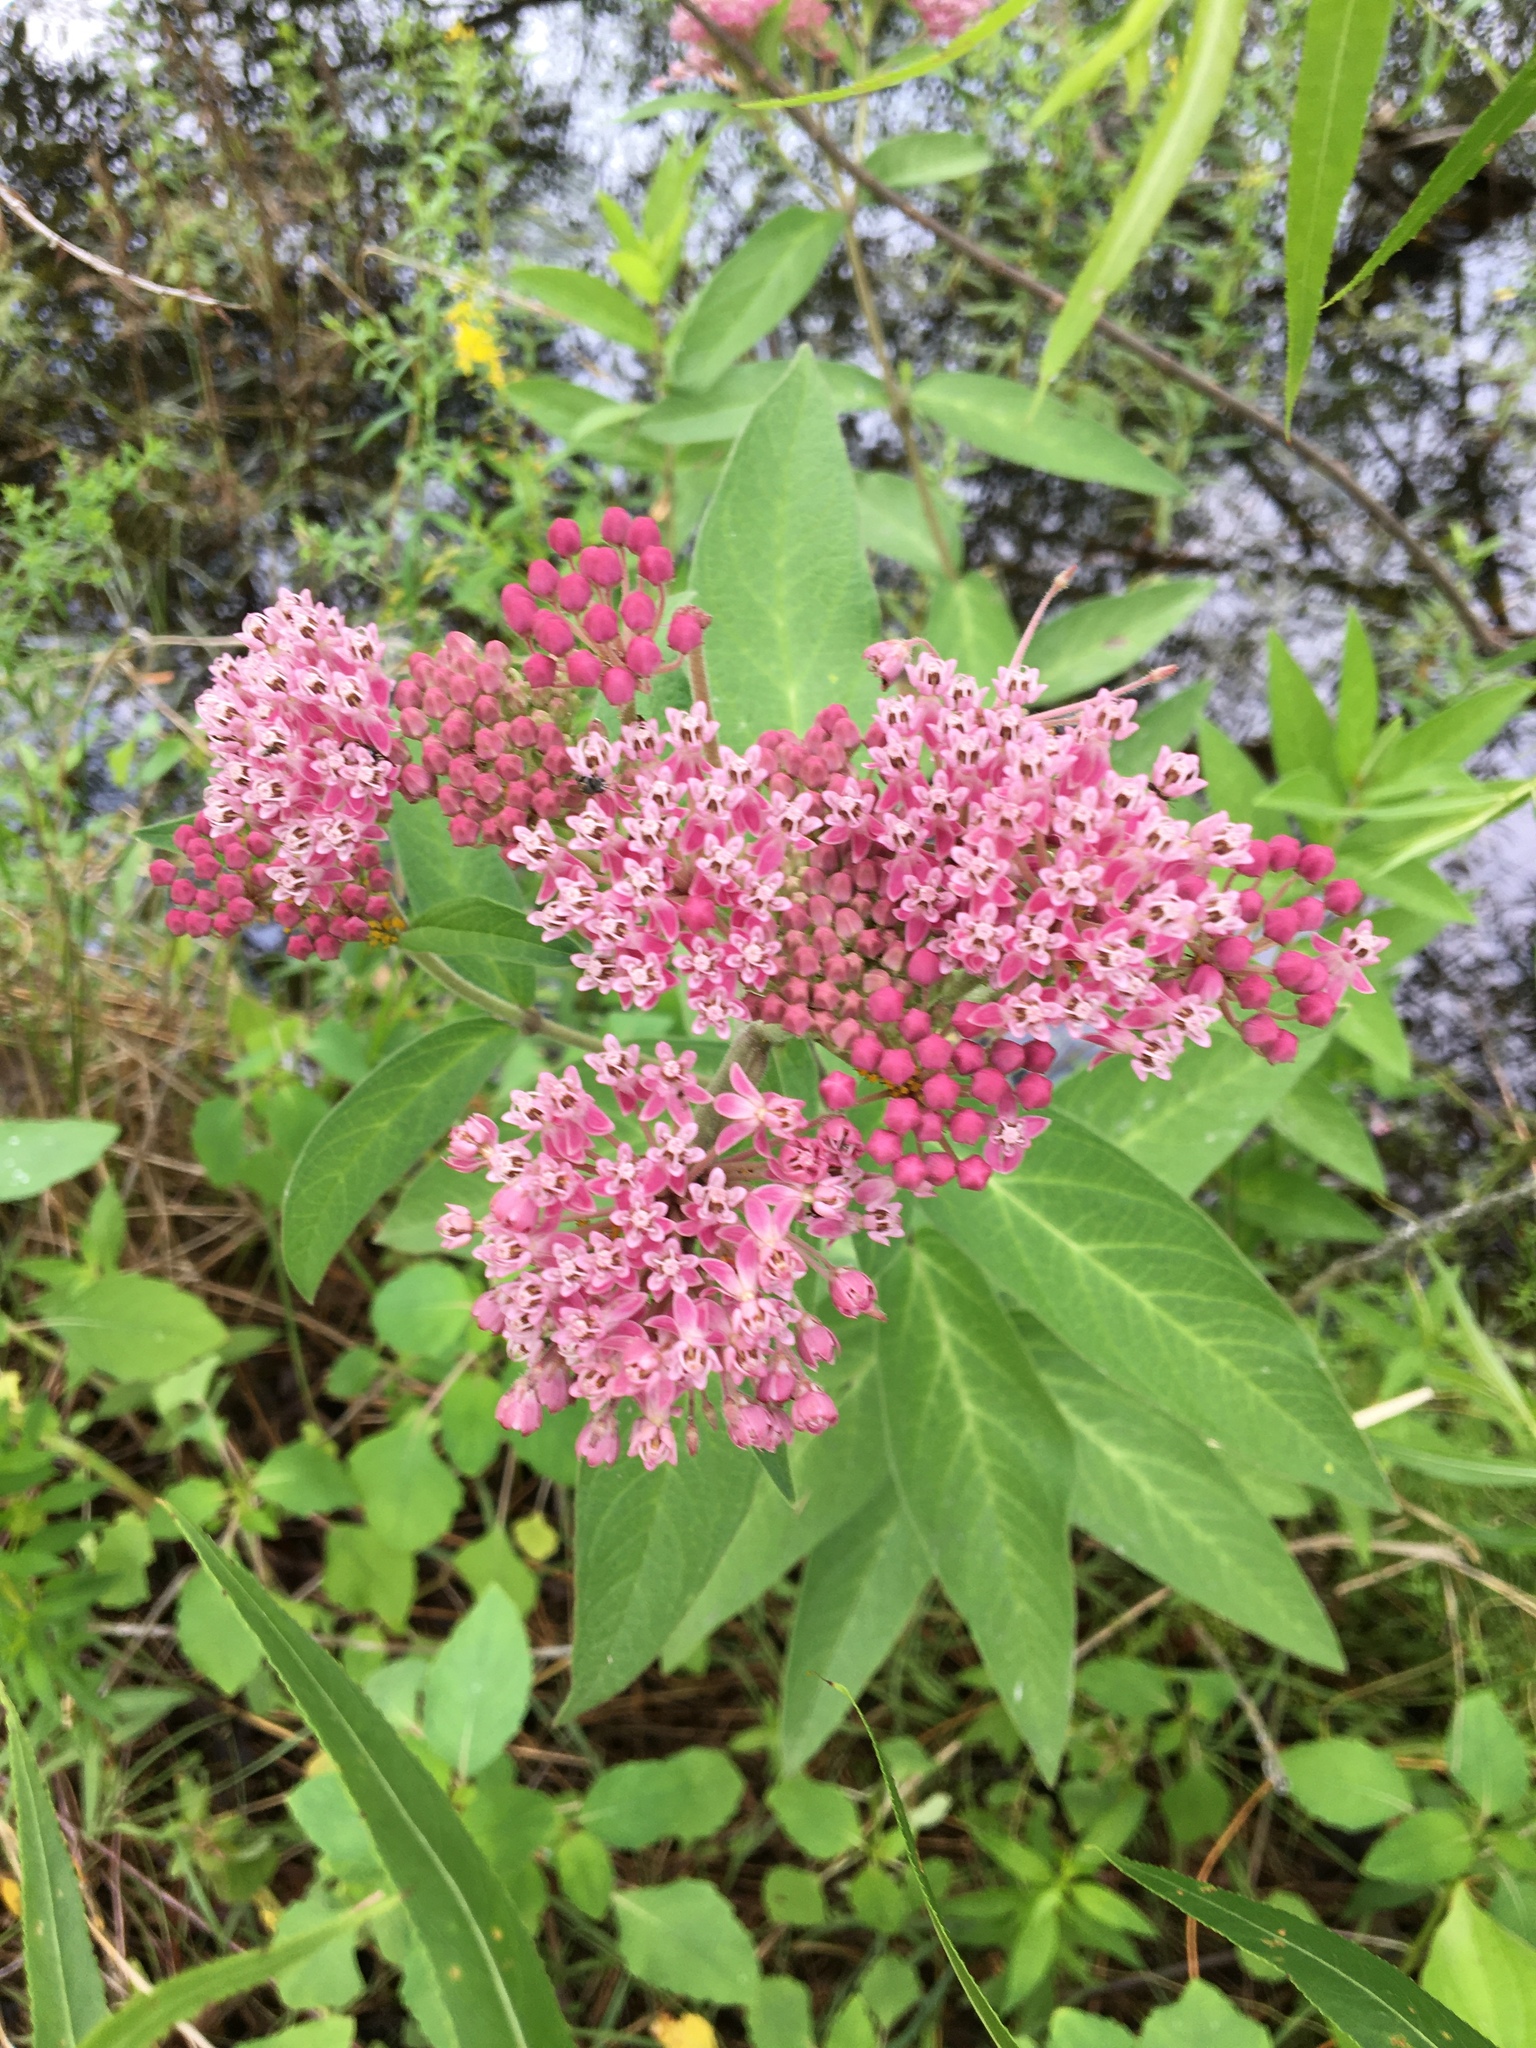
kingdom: Plantae
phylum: Tracheophyta
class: Magnoliopsida
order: Gentianales
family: Apocynaceae
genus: Asclepias
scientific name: Asclepias incarnata
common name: Swamp milkweed
